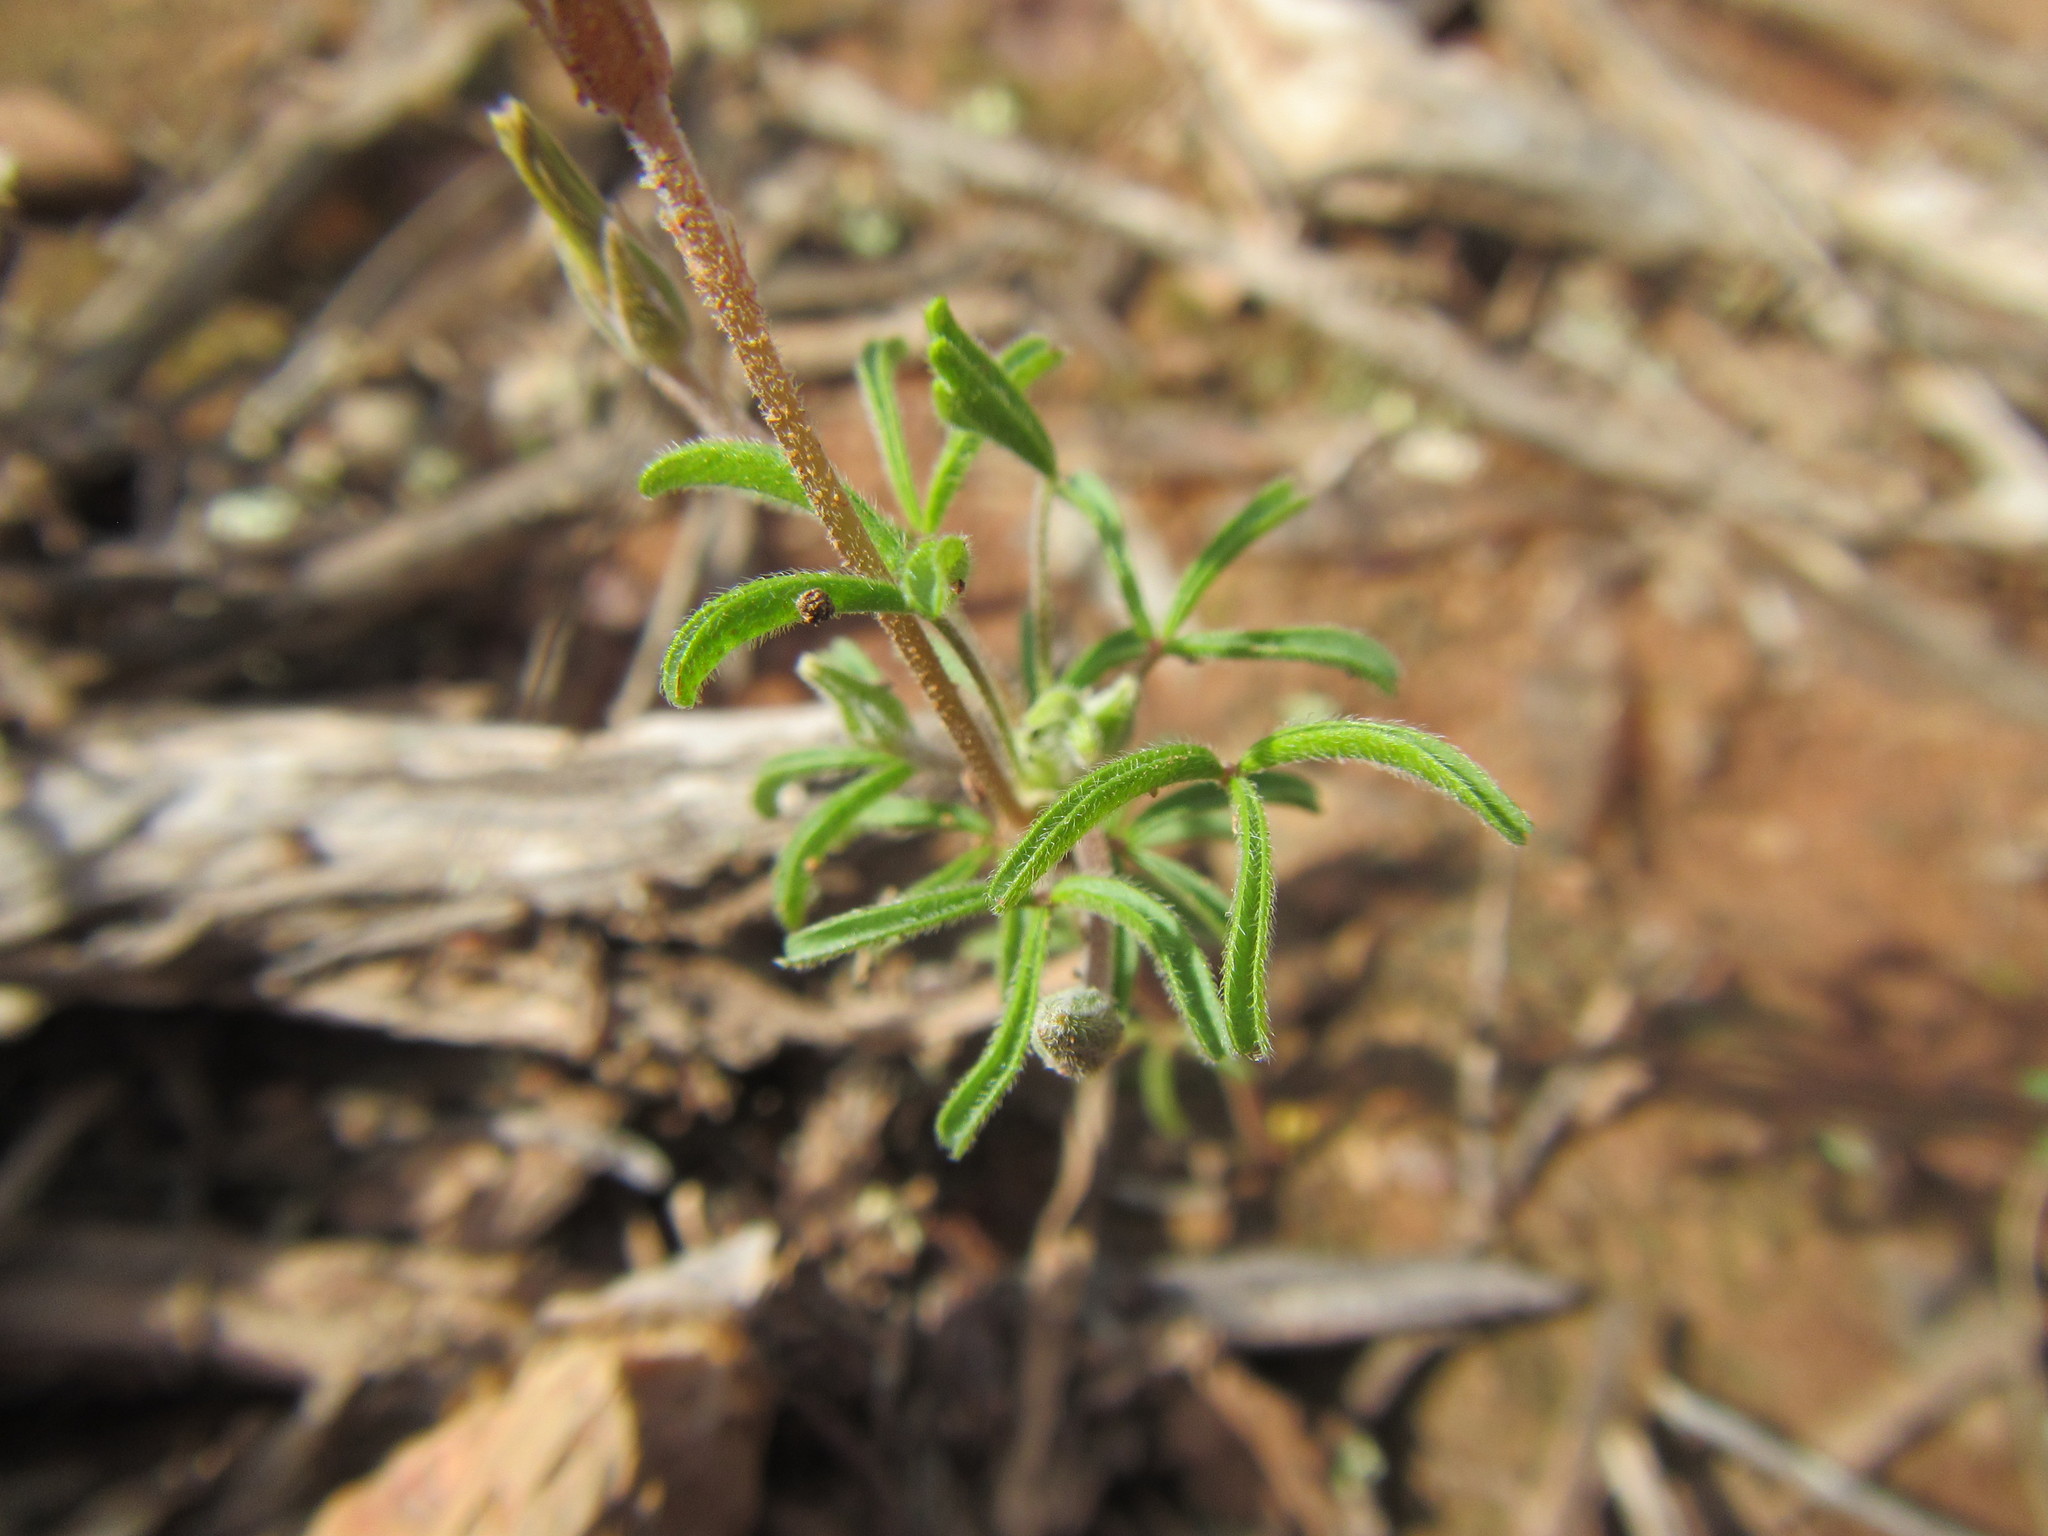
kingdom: Plantae
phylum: Tracheophyta
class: Magnoliopsida
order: Oxalidales
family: Oxalidaceae
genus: Oxalis
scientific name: Oxalis ciliaris
